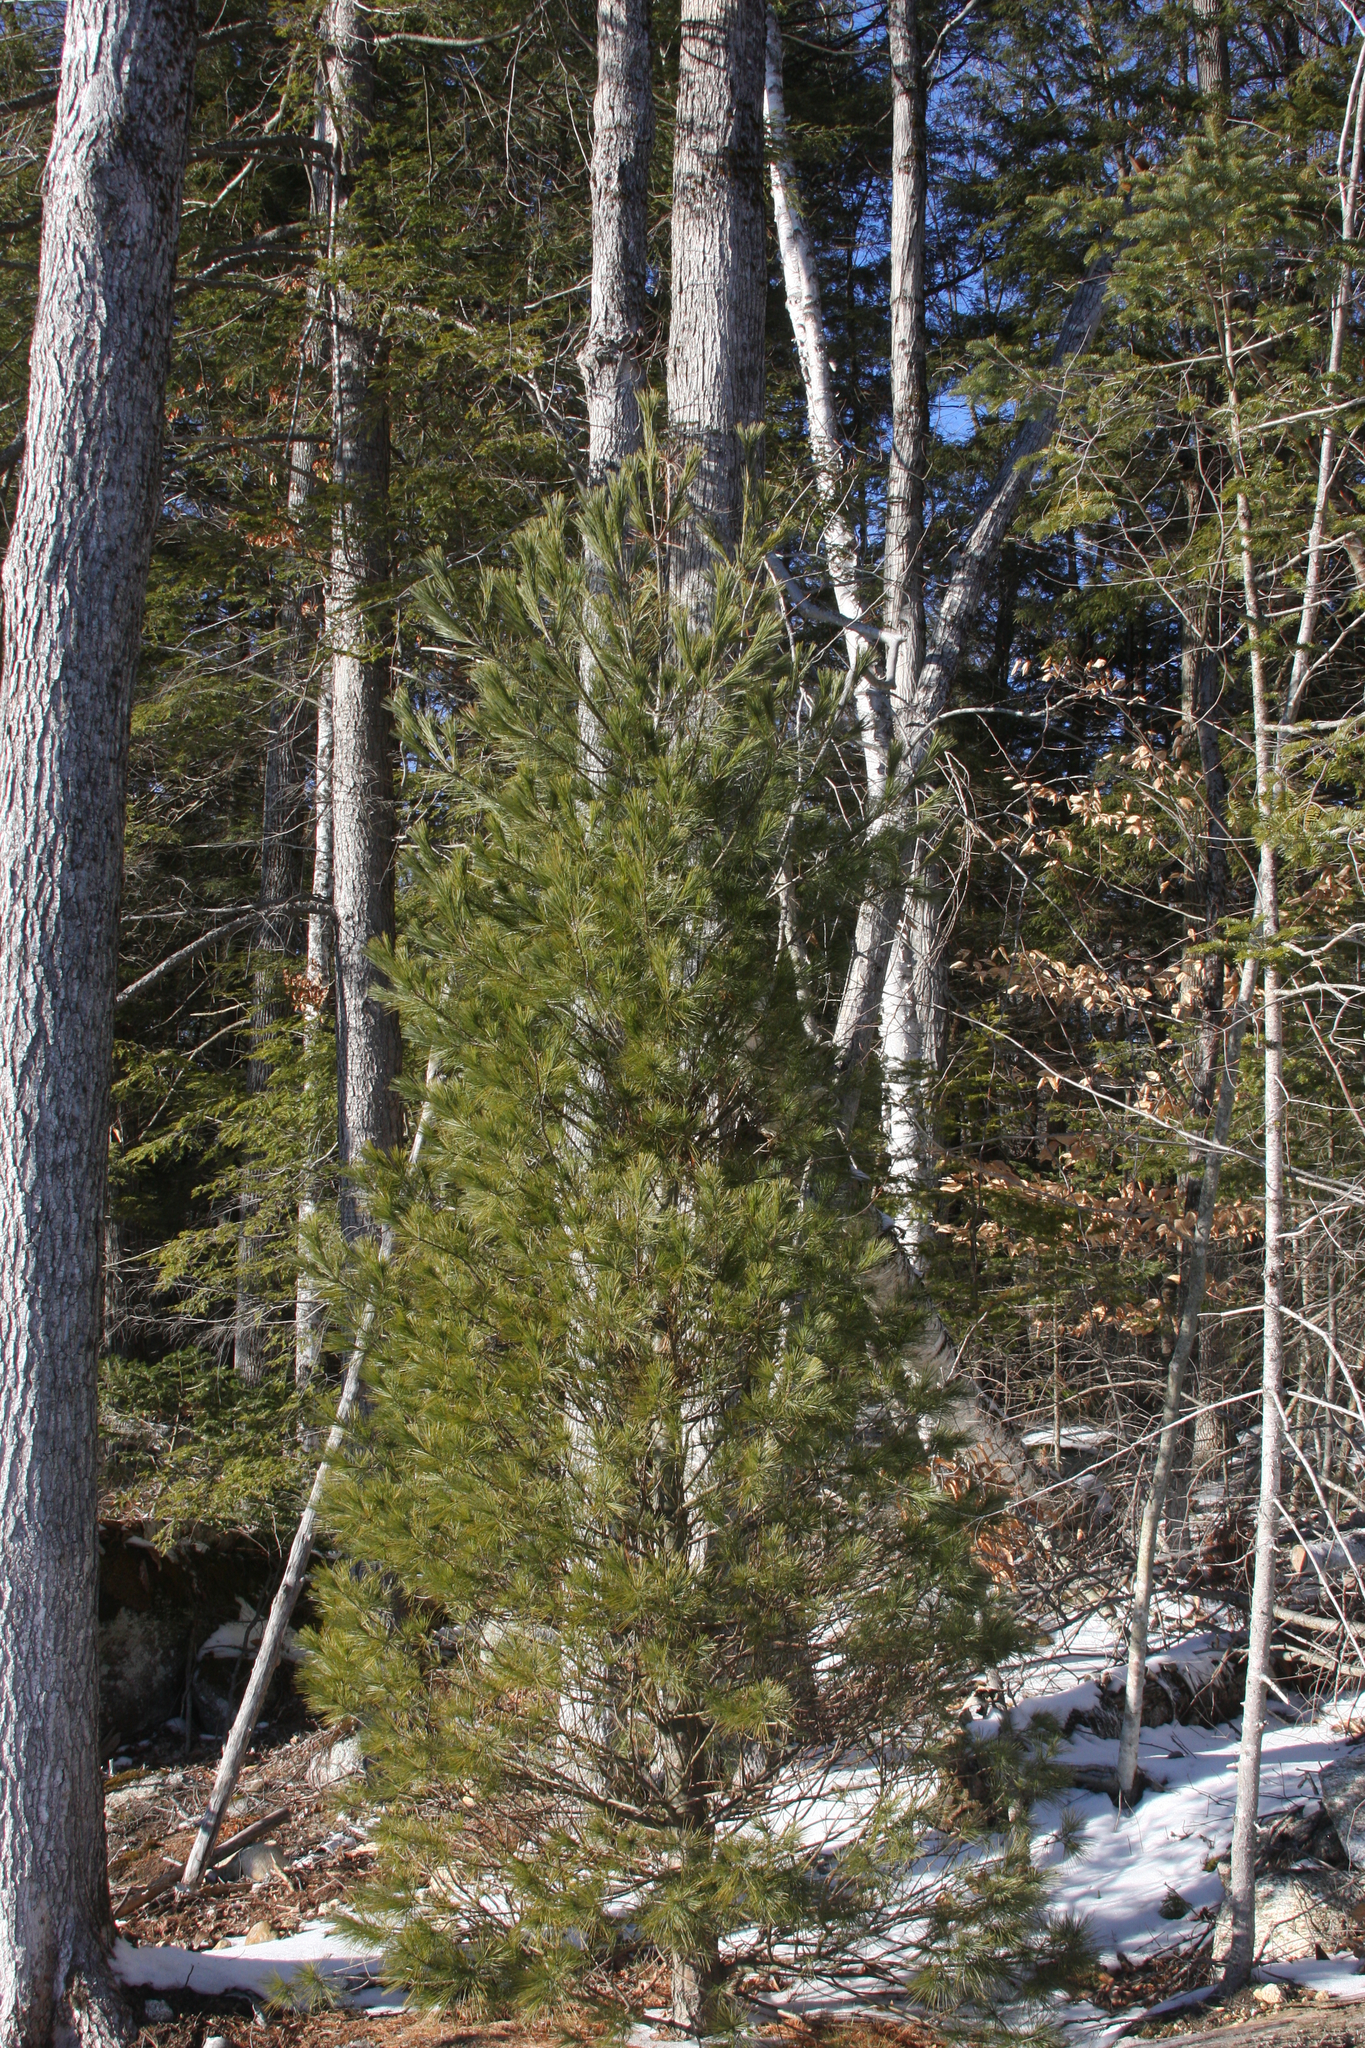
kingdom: Plantae
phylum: Tracheophyta
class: Pinopsida
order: Pinales
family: Pinaceae
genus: Pinus
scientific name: Pinus strobus
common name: Weymouth pine
